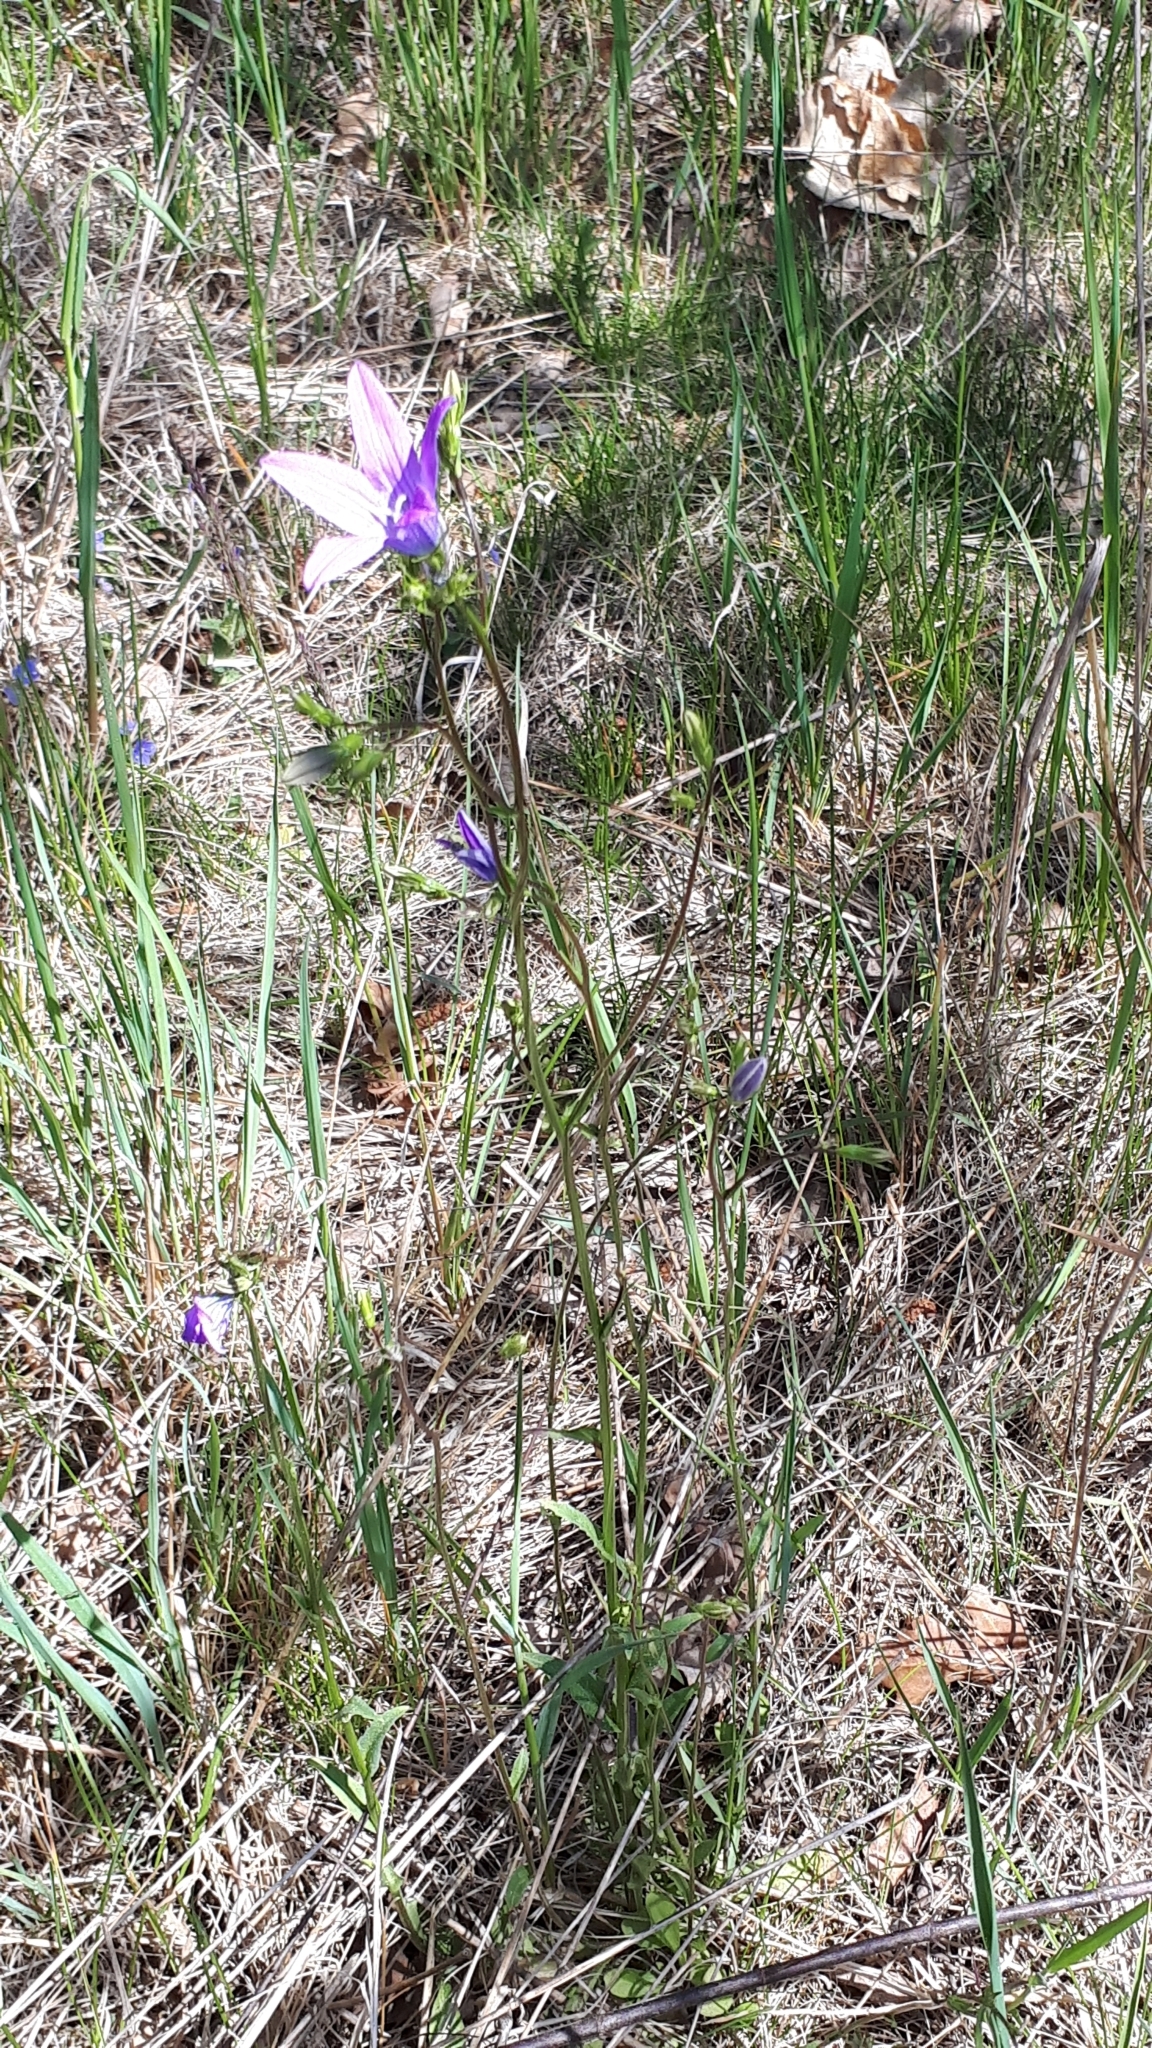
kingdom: Plantae
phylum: Tracheophyta
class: Magnoliopsida
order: Asterales
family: Campanulaceae
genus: Campanula
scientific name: Campanula patula
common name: Spreading bellflower
